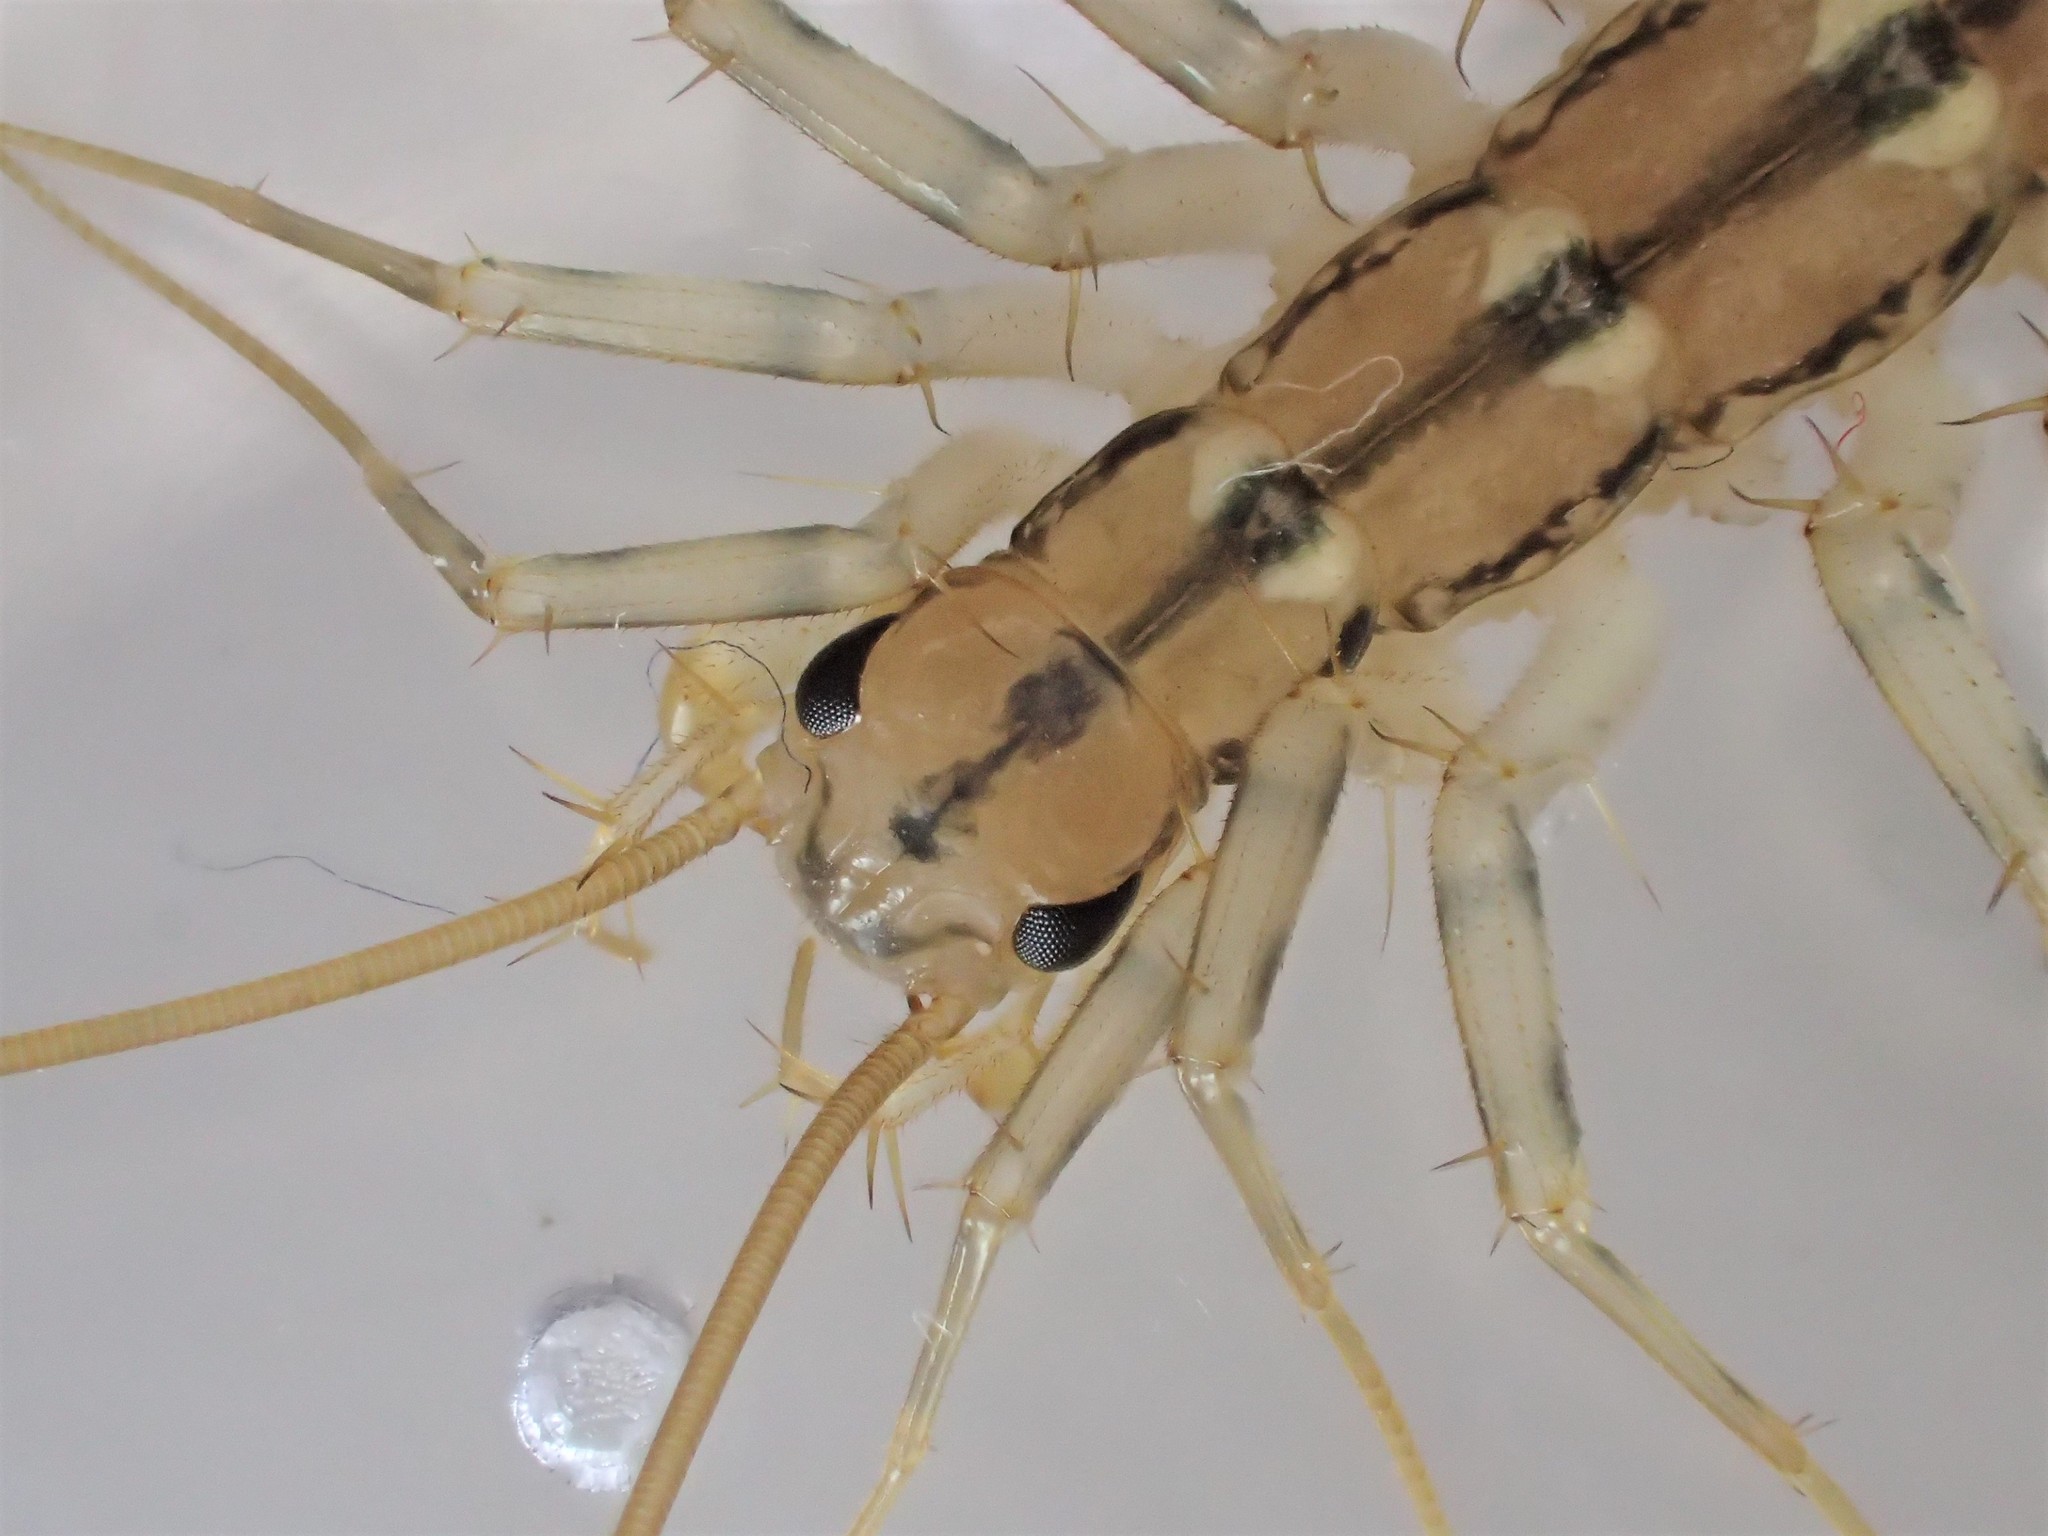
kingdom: Animalia
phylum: Arthropoda
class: Chilopoda
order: Scutigeromorpha
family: Scutigeridae
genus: Scutigera
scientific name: Scutigera coleoptrata
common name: House centipede
